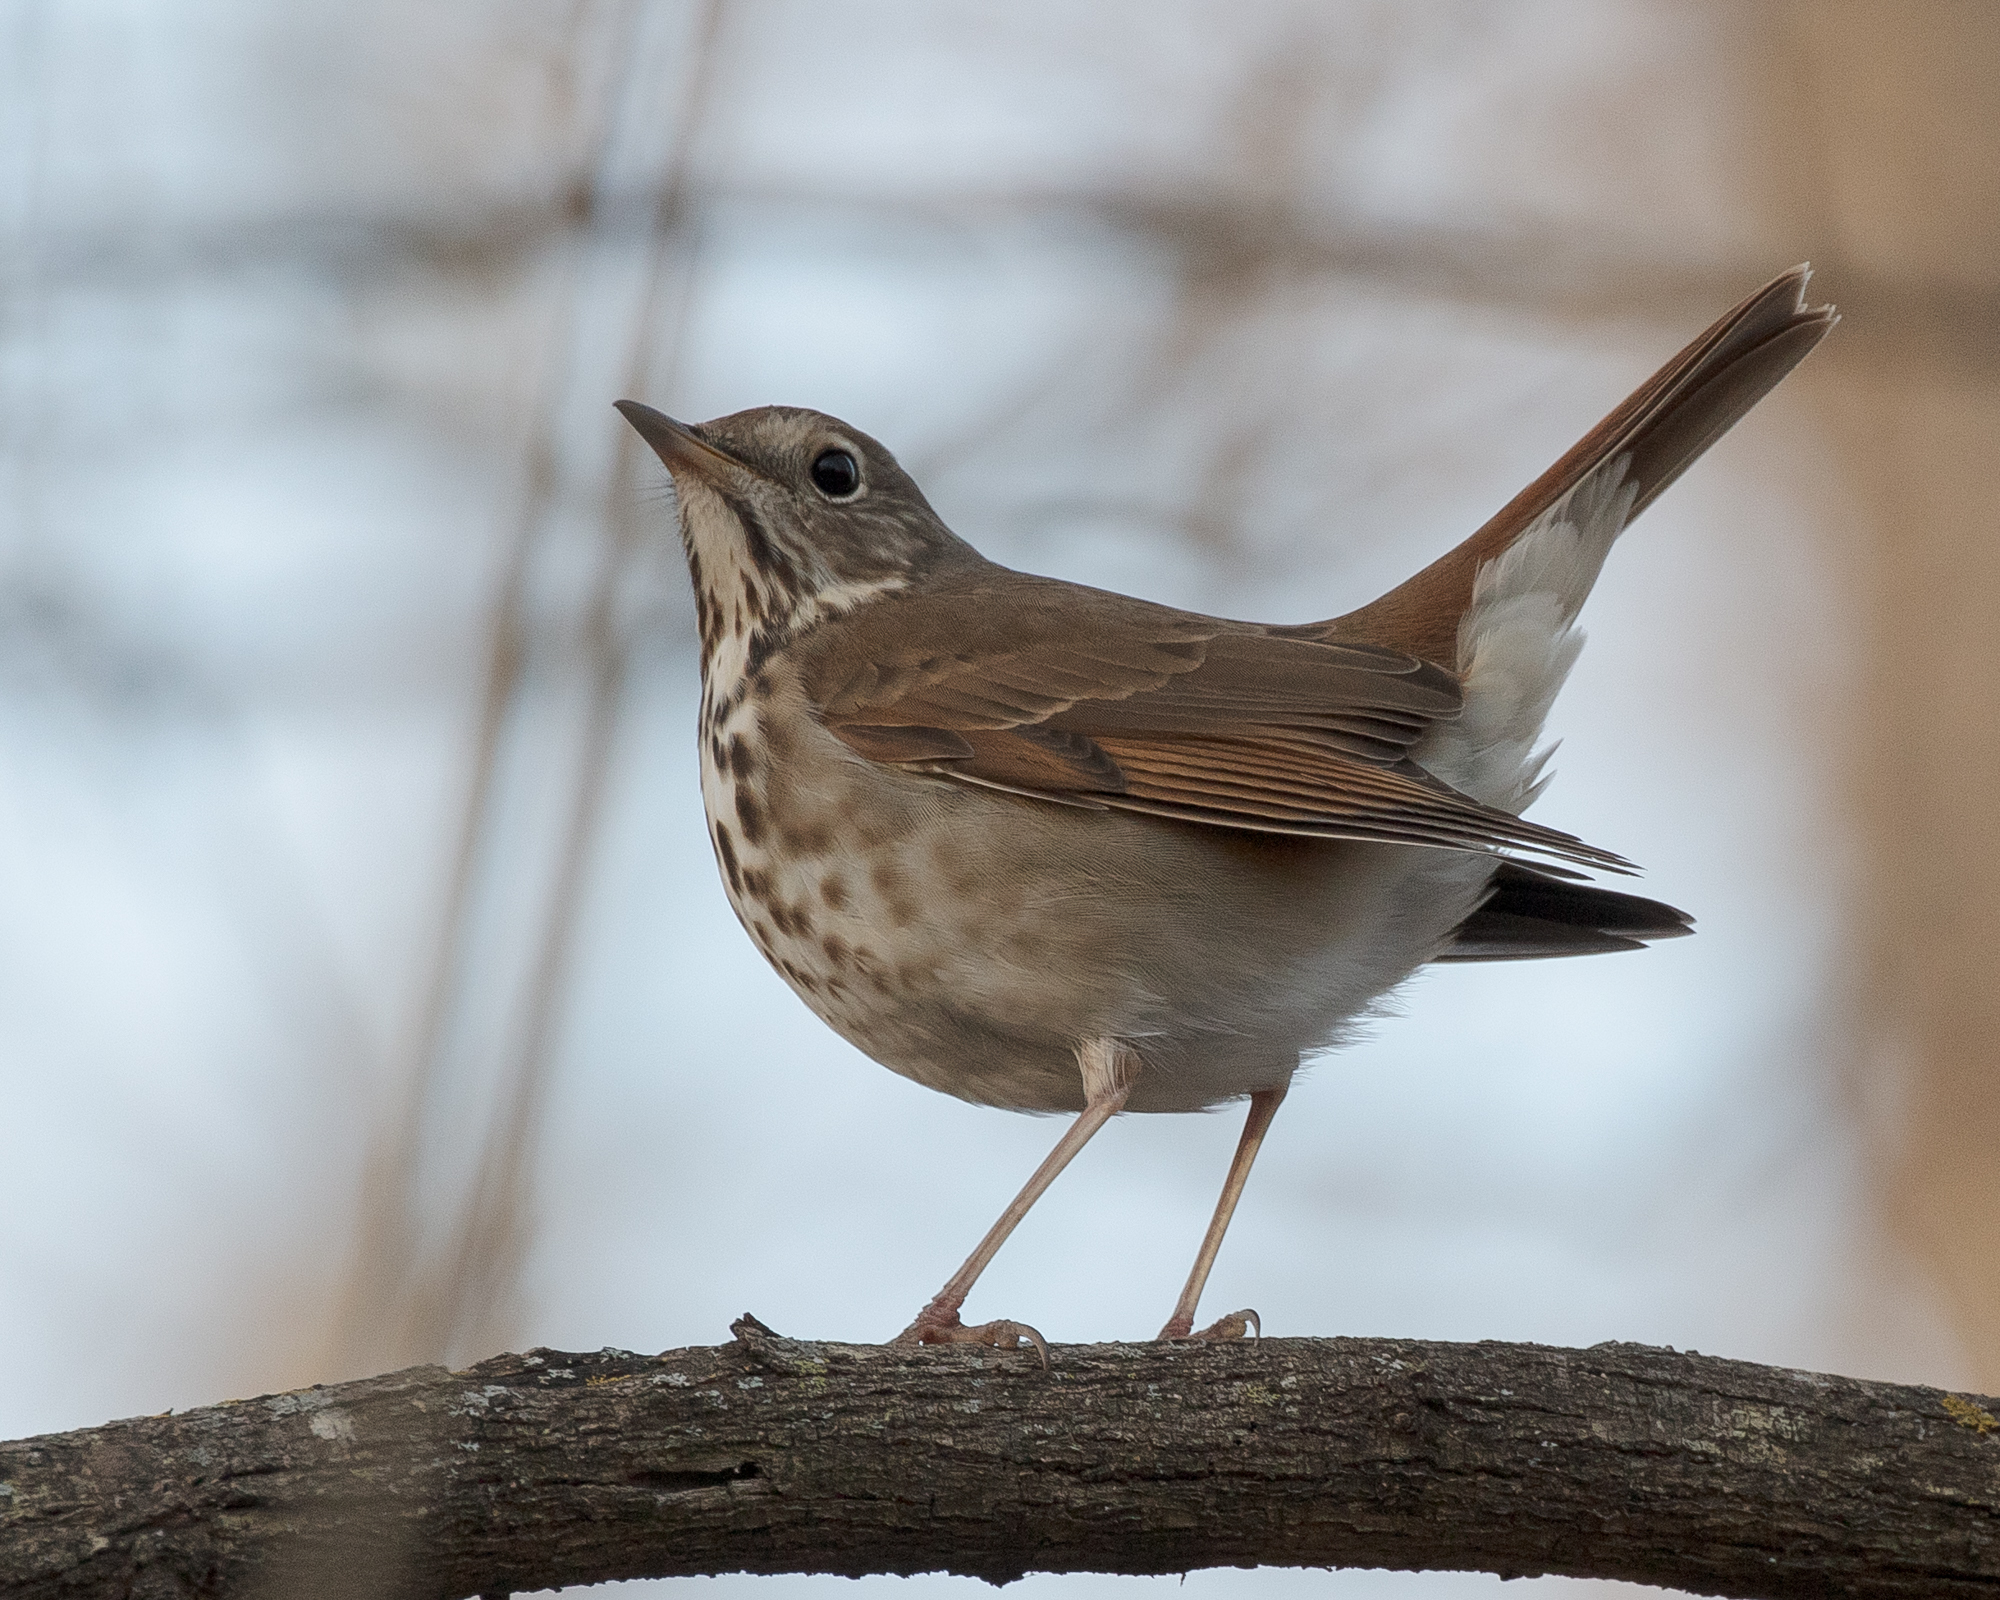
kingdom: Animalia
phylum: Chordata
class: Aves
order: Passeriformes
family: Turdidae
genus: Catharus
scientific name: Catharus guttatus
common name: Hermit thrush
